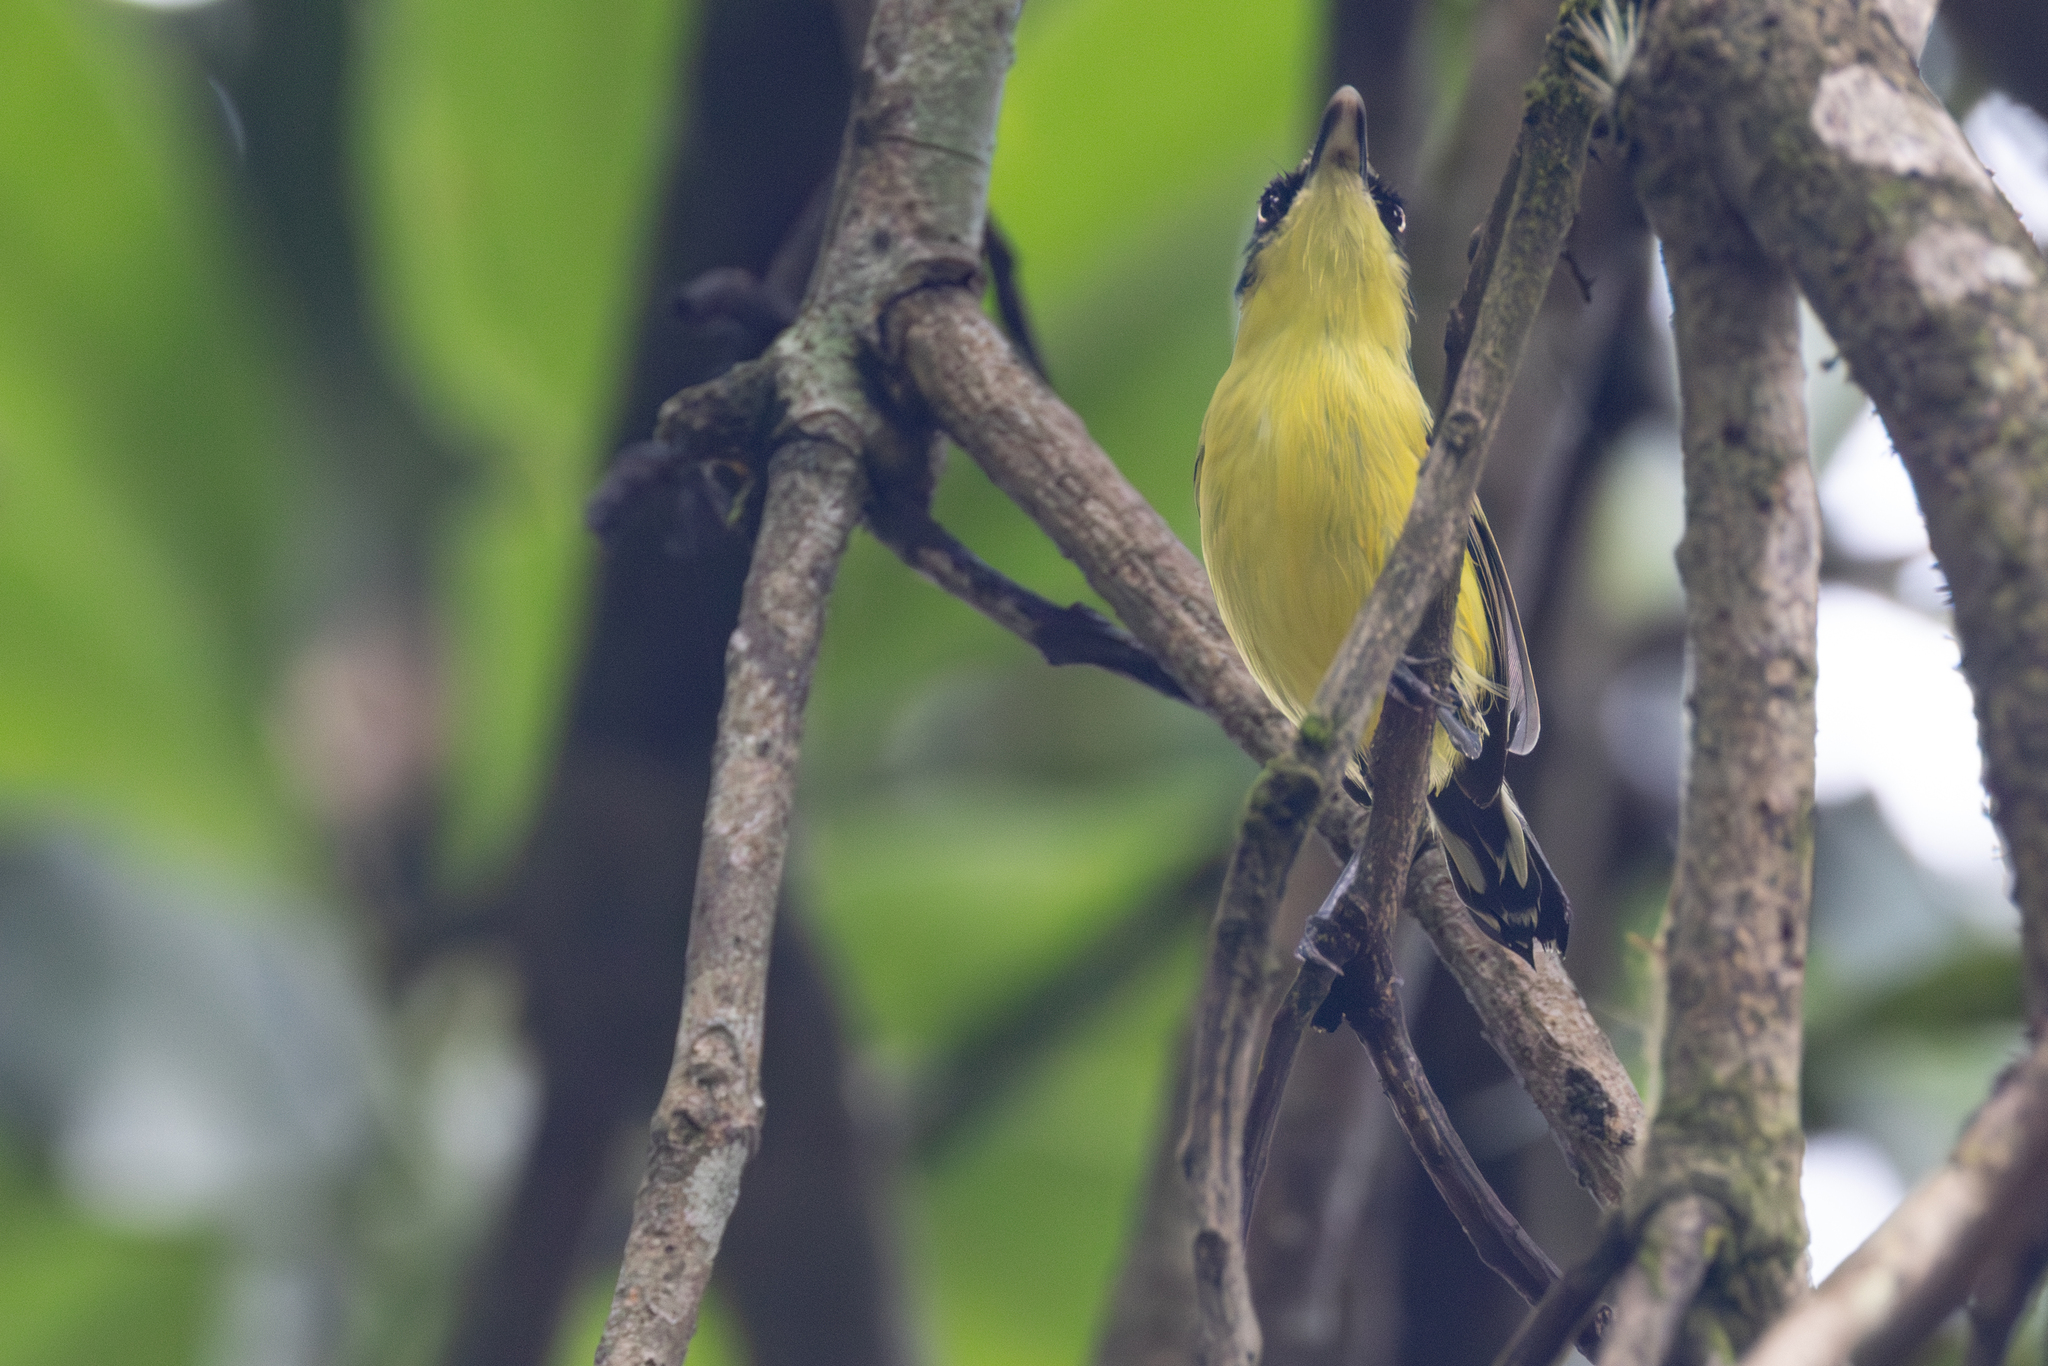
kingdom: Animalia
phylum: Chordata
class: Aves
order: Passeriformes
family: Tyrannidae
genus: Todirostrum
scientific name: Todirostrum cinereum
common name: Common tody-flycatcher
